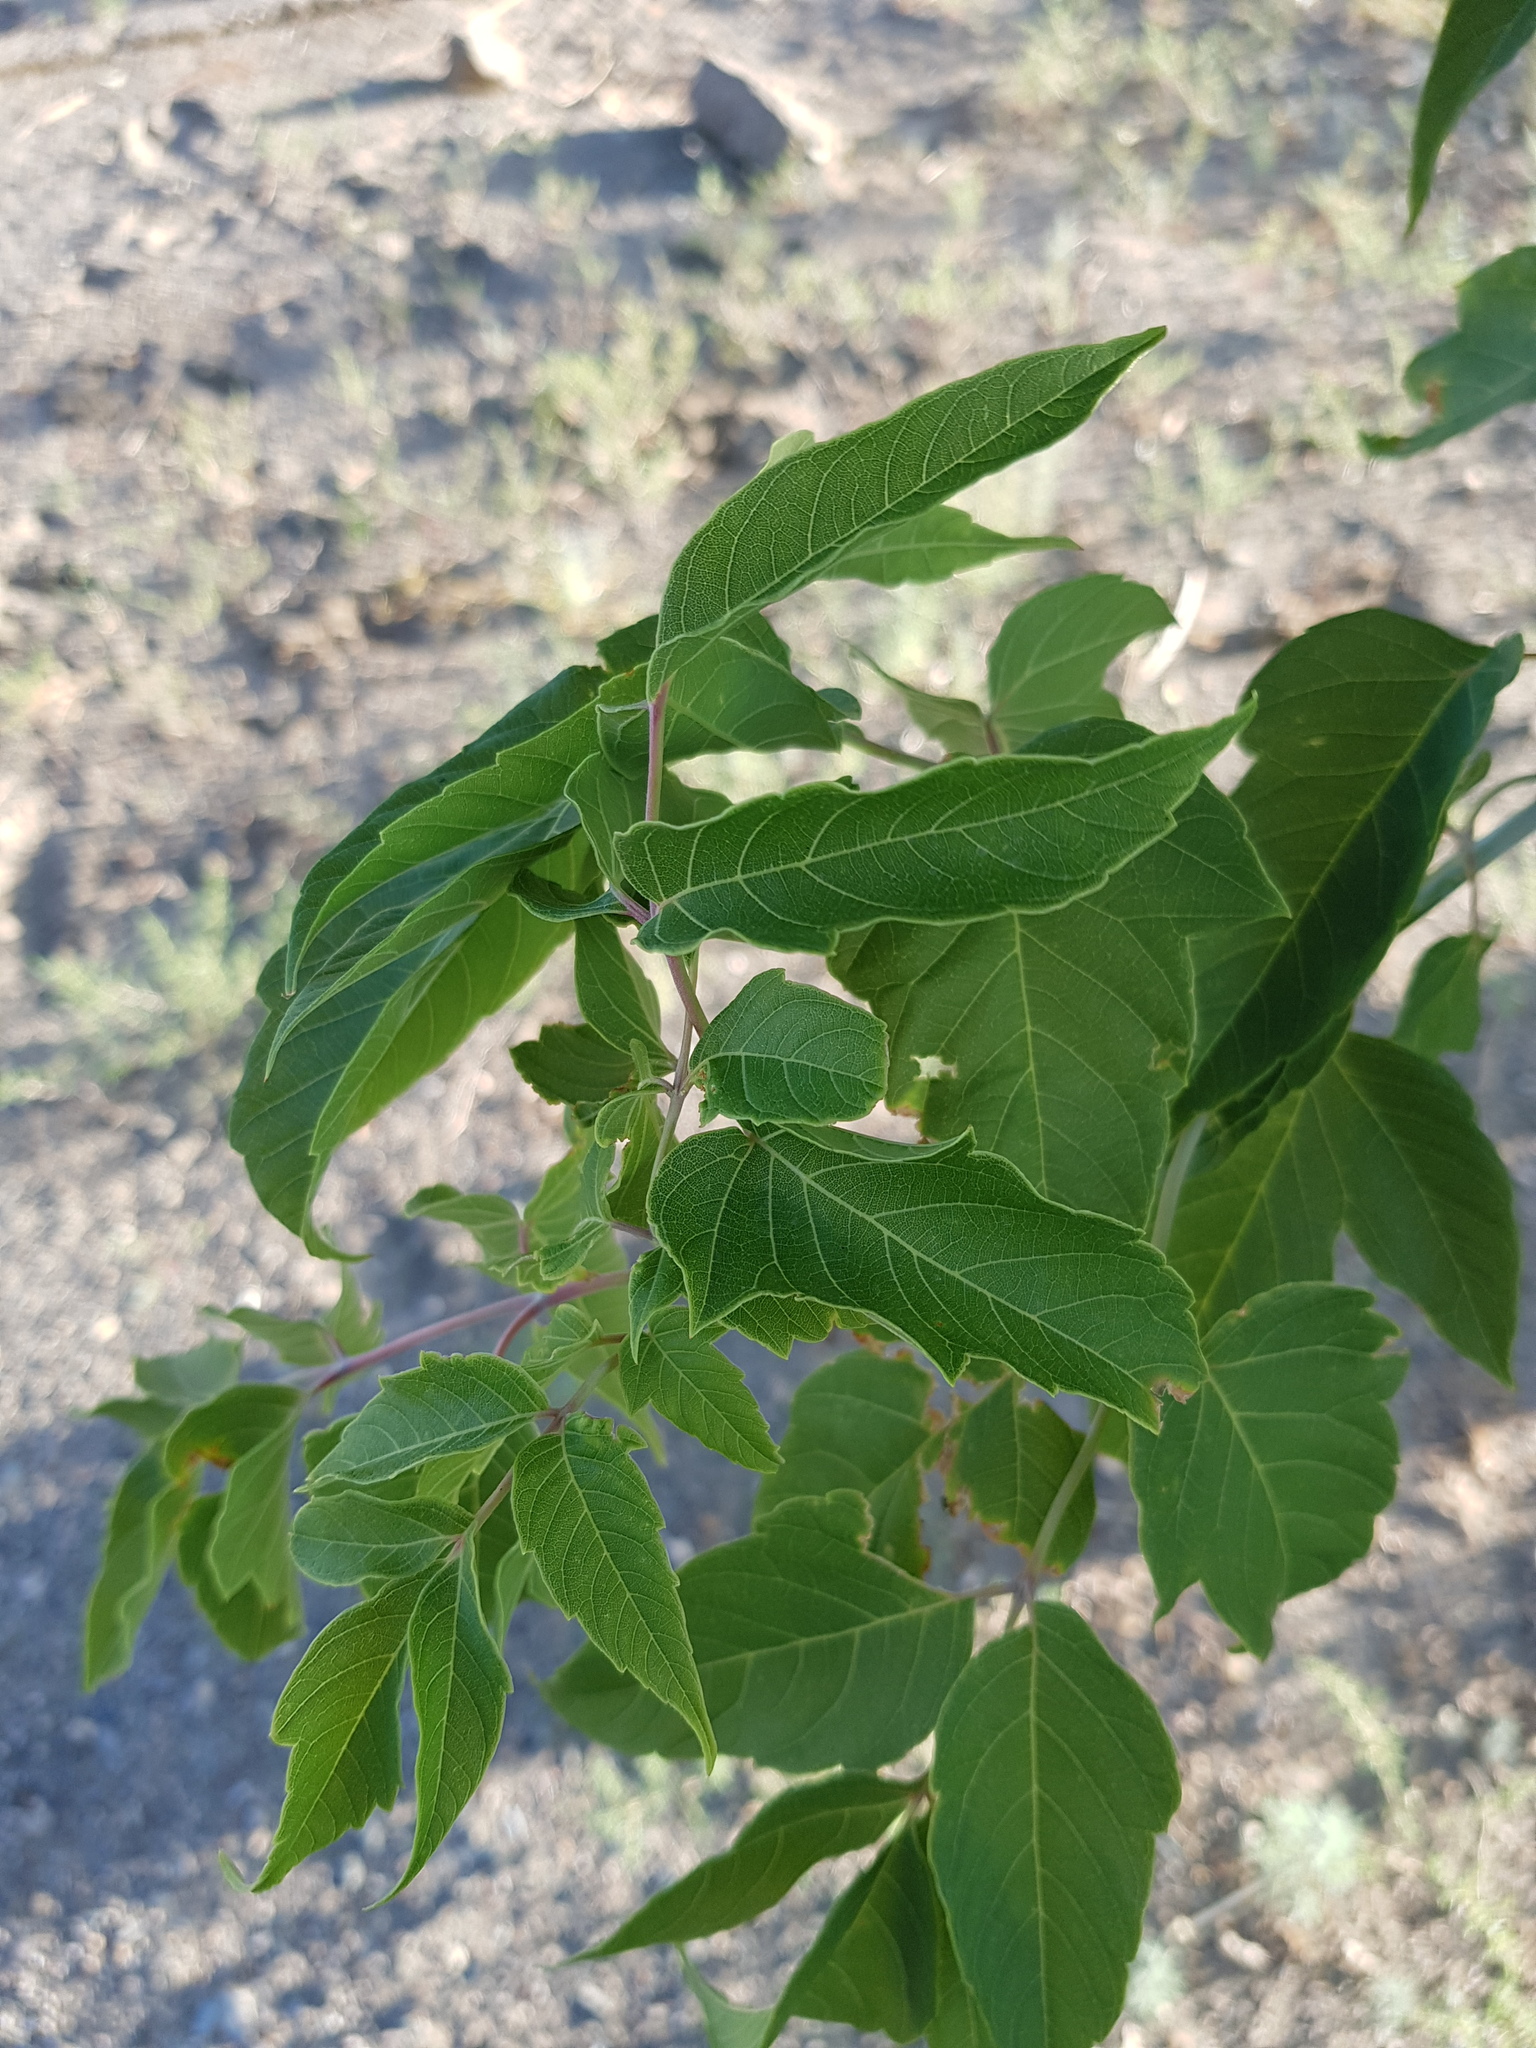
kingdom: Plantae
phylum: Tracheophyta
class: Magnoliopsida
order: Sapindales
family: Sapindaceae
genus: Acer
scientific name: Acer negundo
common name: Ashleaf maple
